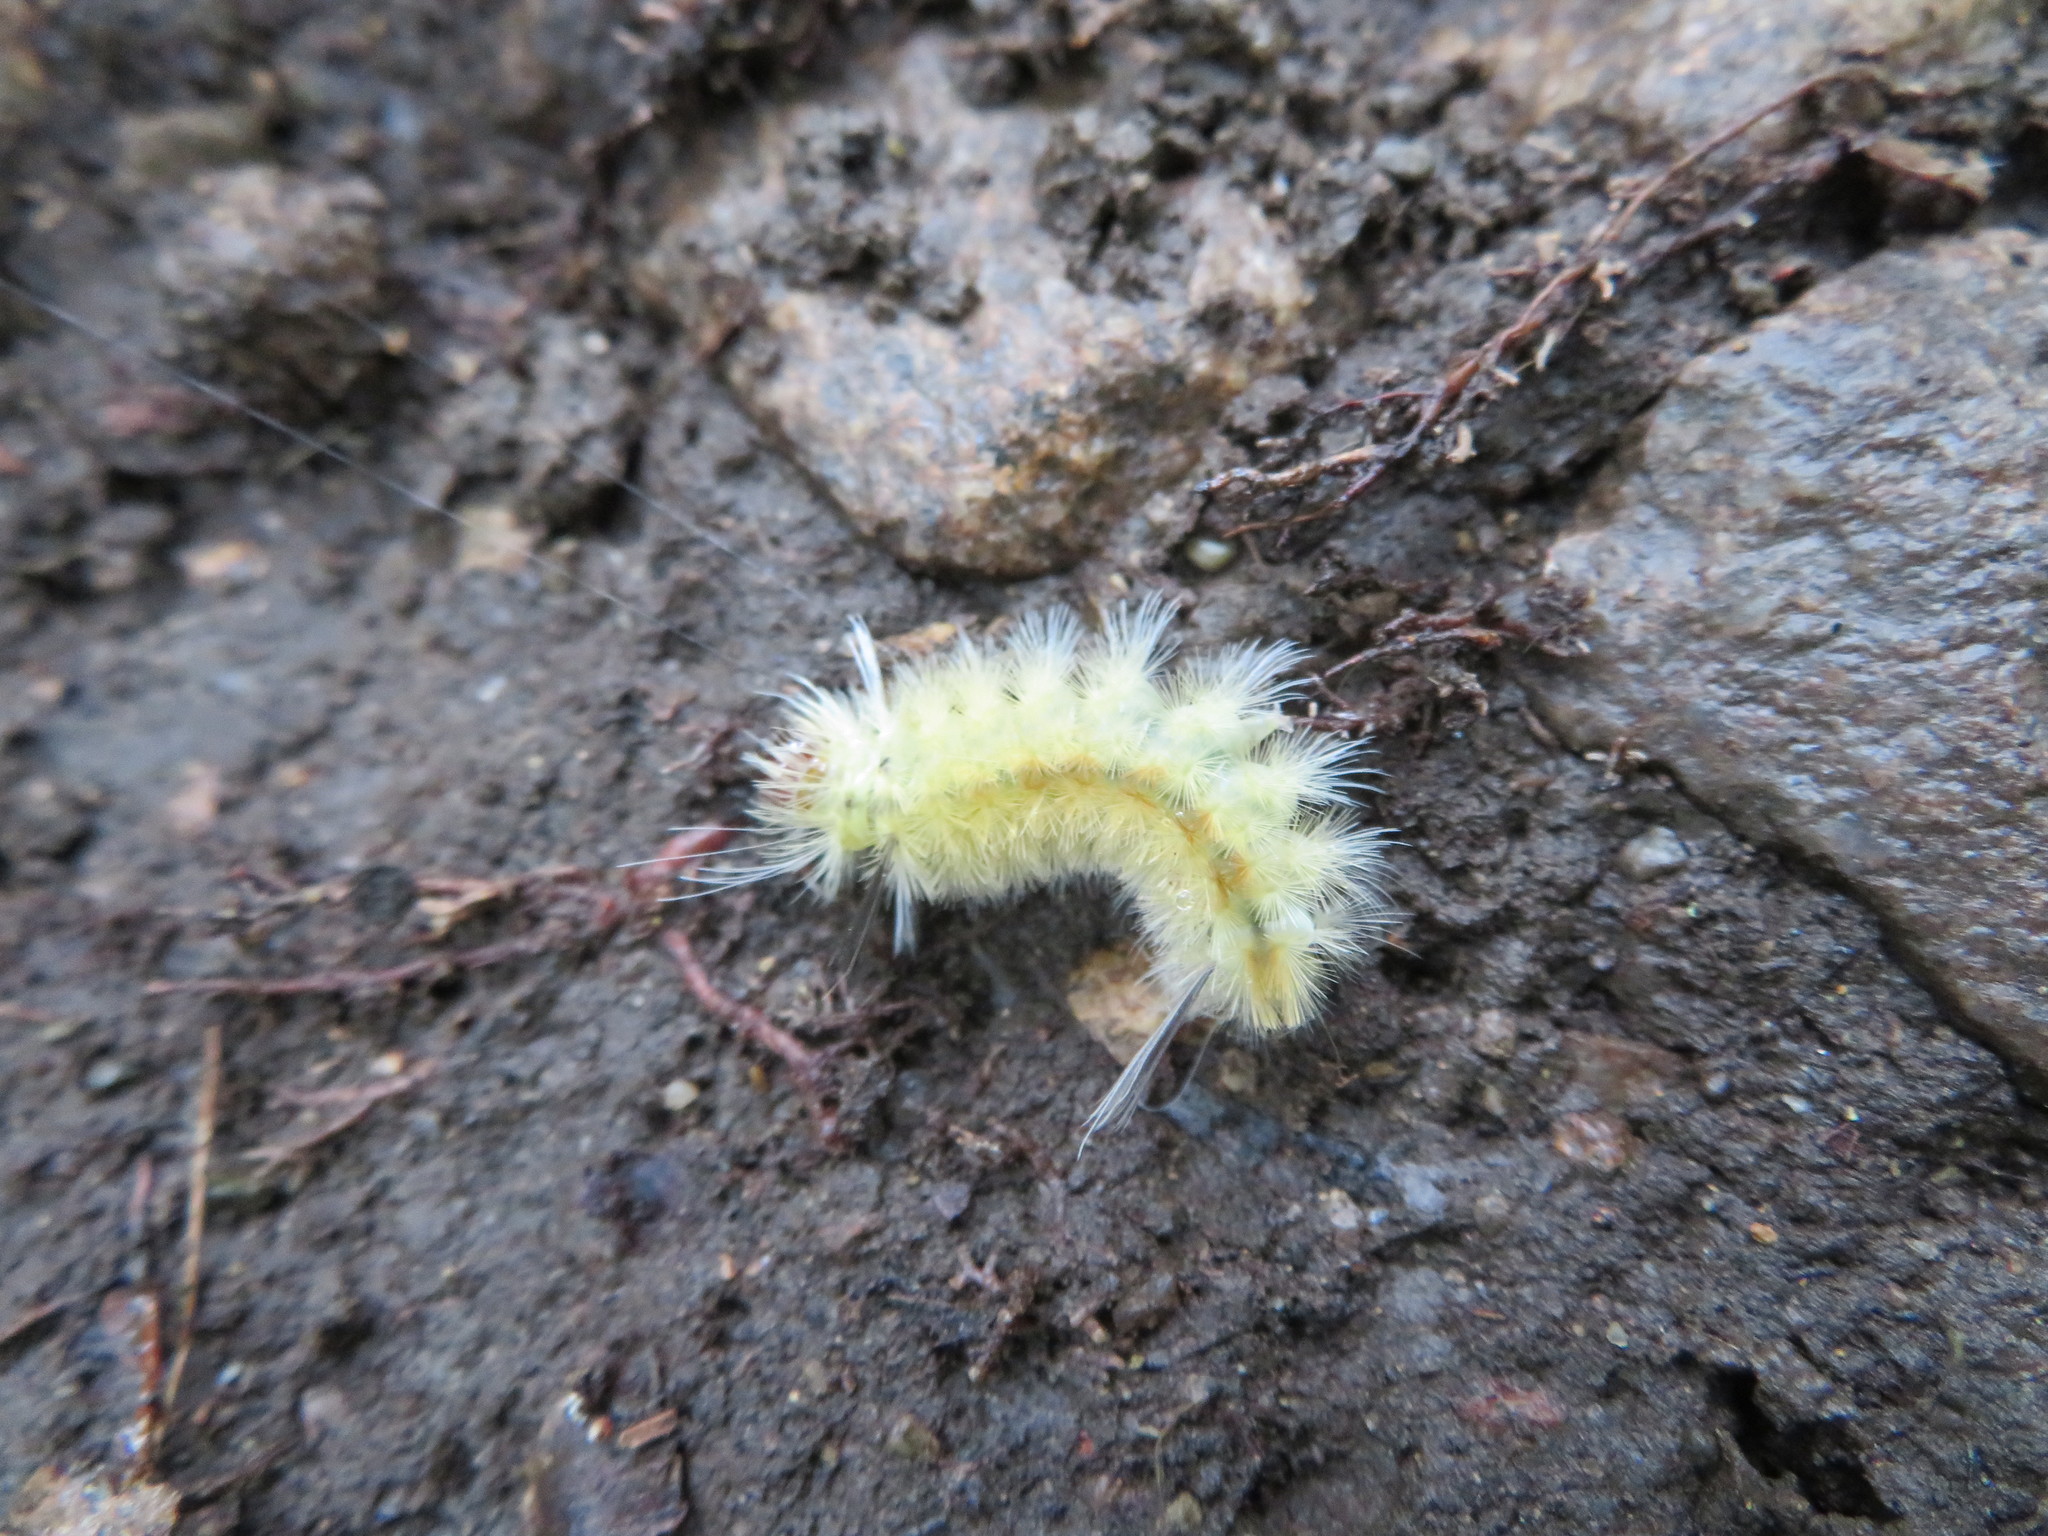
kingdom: Animalia
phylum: Arthropoda
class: Insecta
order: Lepidoptera
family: Erebidae
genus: Halysidota
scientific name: Halysidota tessellaris
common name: Banded tussock moth
